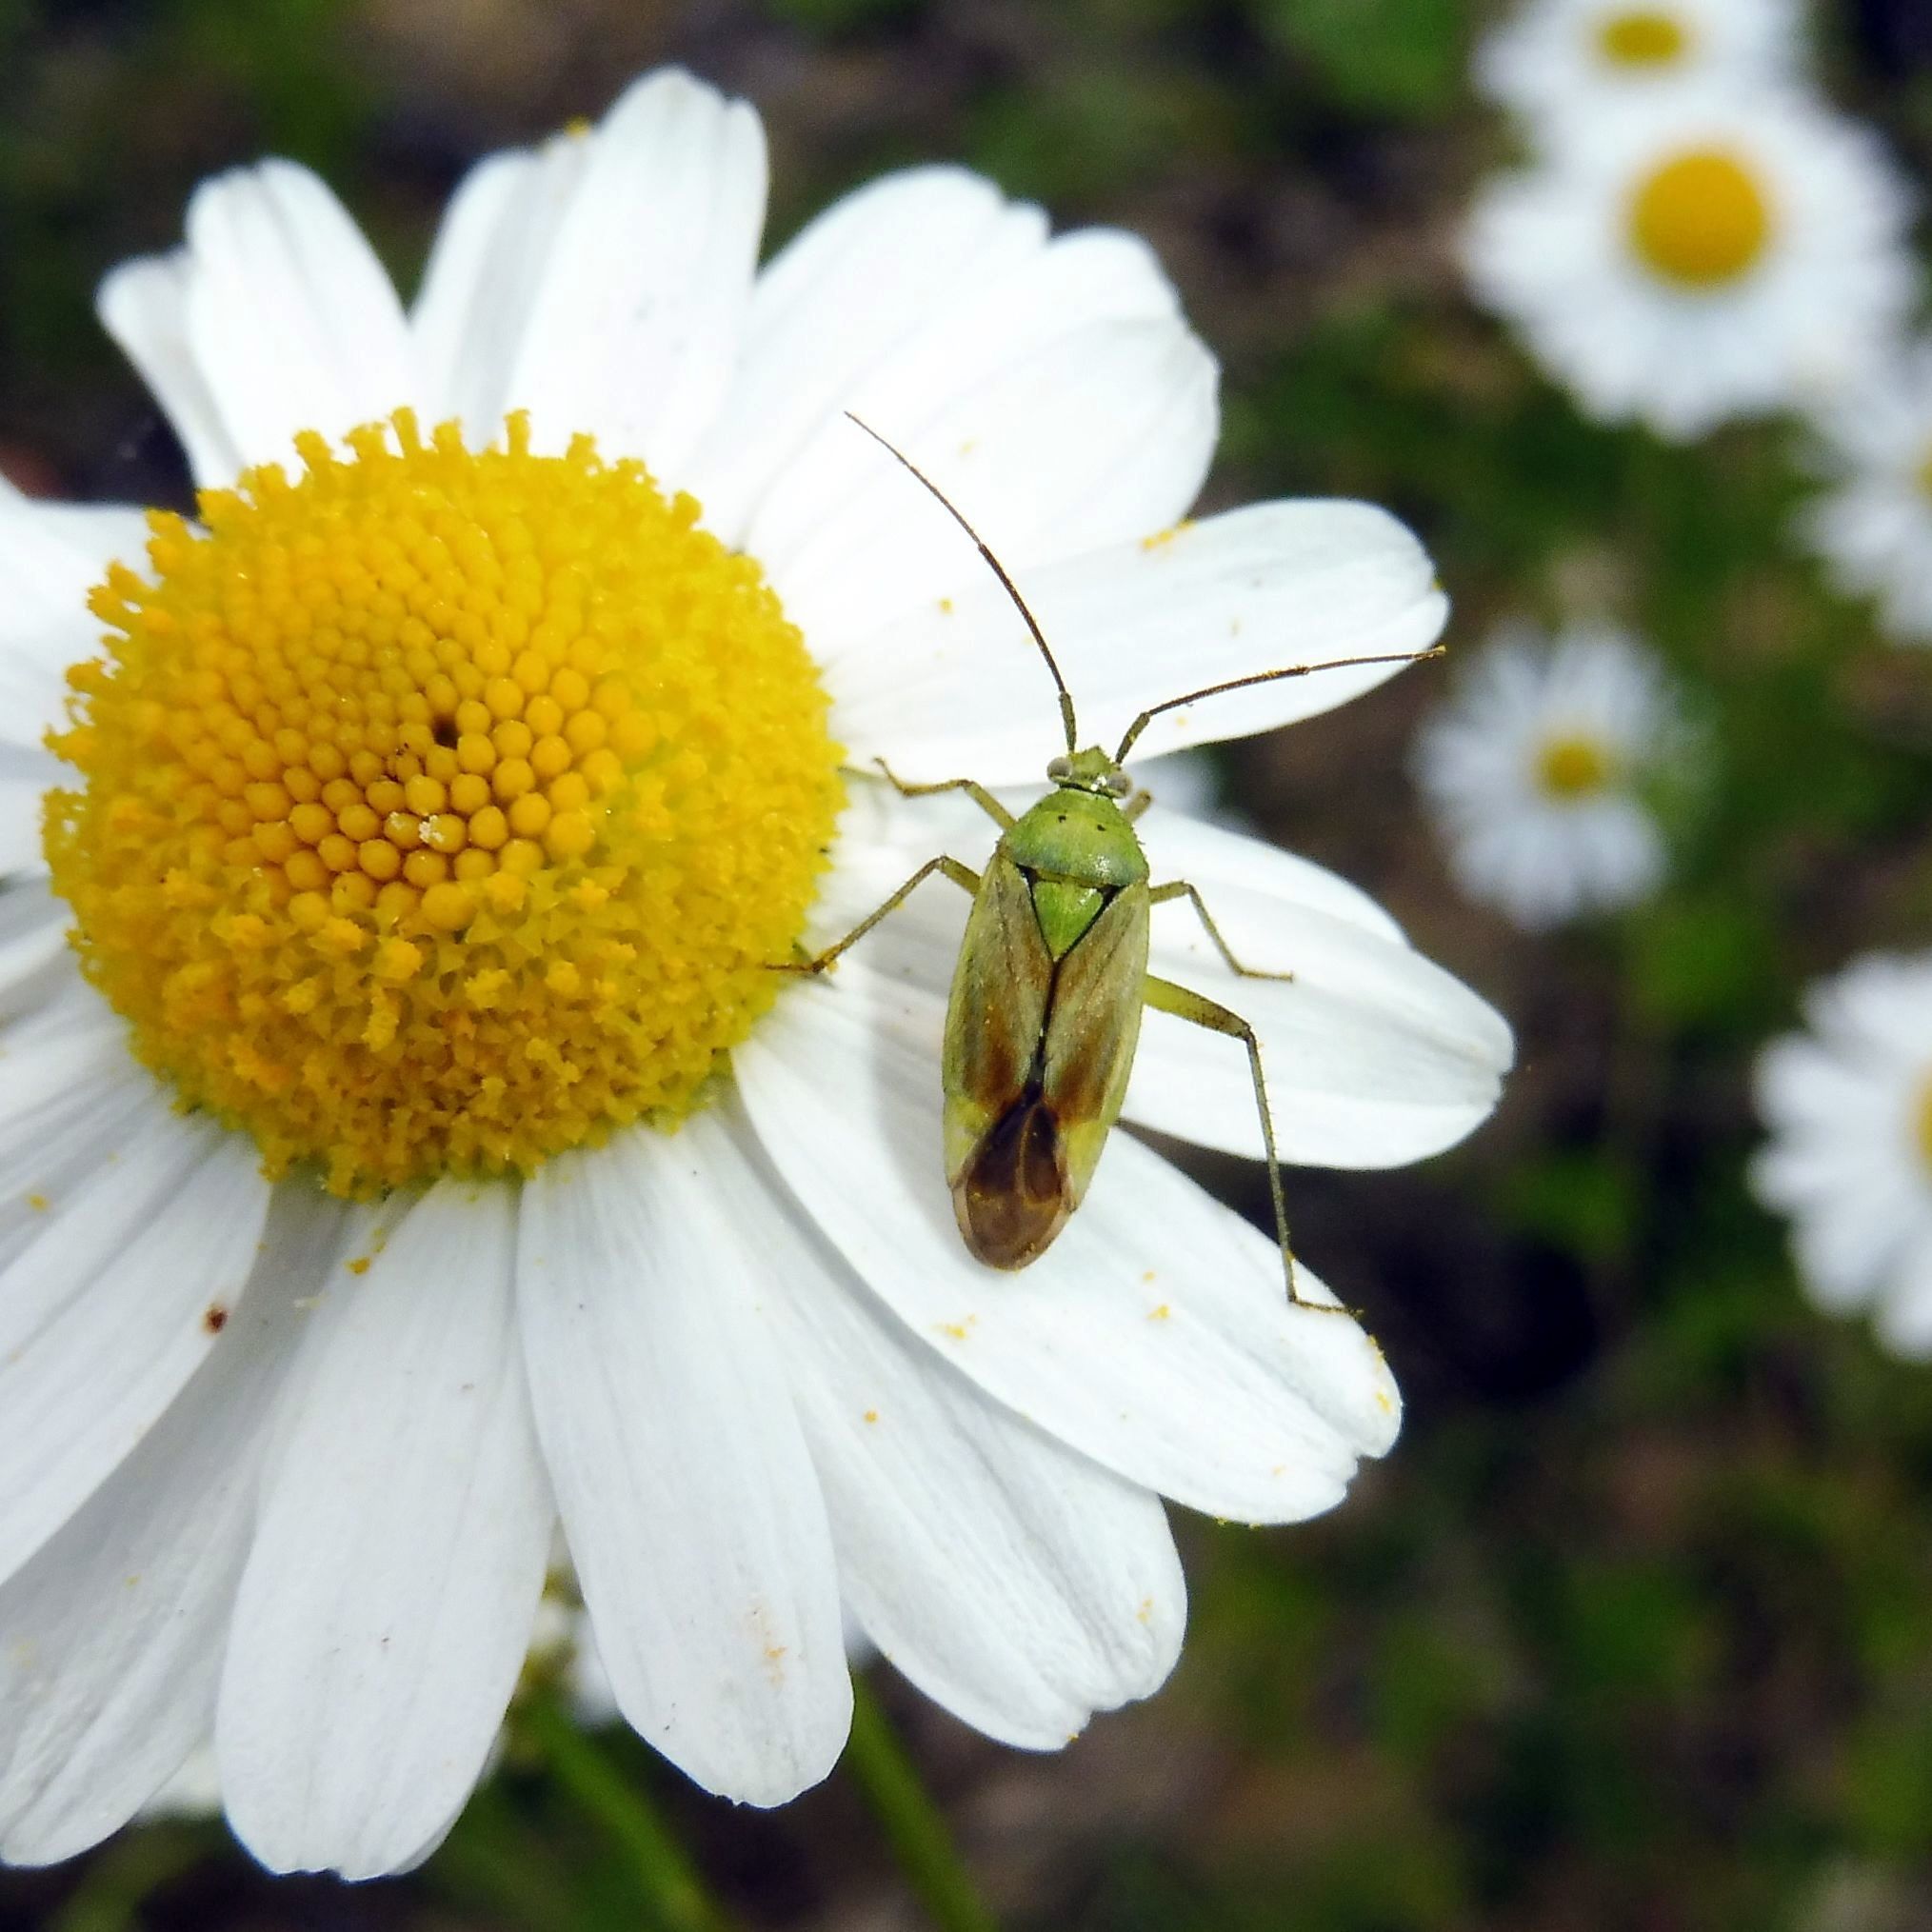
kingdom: Animalia
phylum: Arthropoda
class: Insecta
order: Hemiptera
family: Miridae
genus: Closterotomus
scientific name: Closterotomus norvegicus
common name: Plant bug
